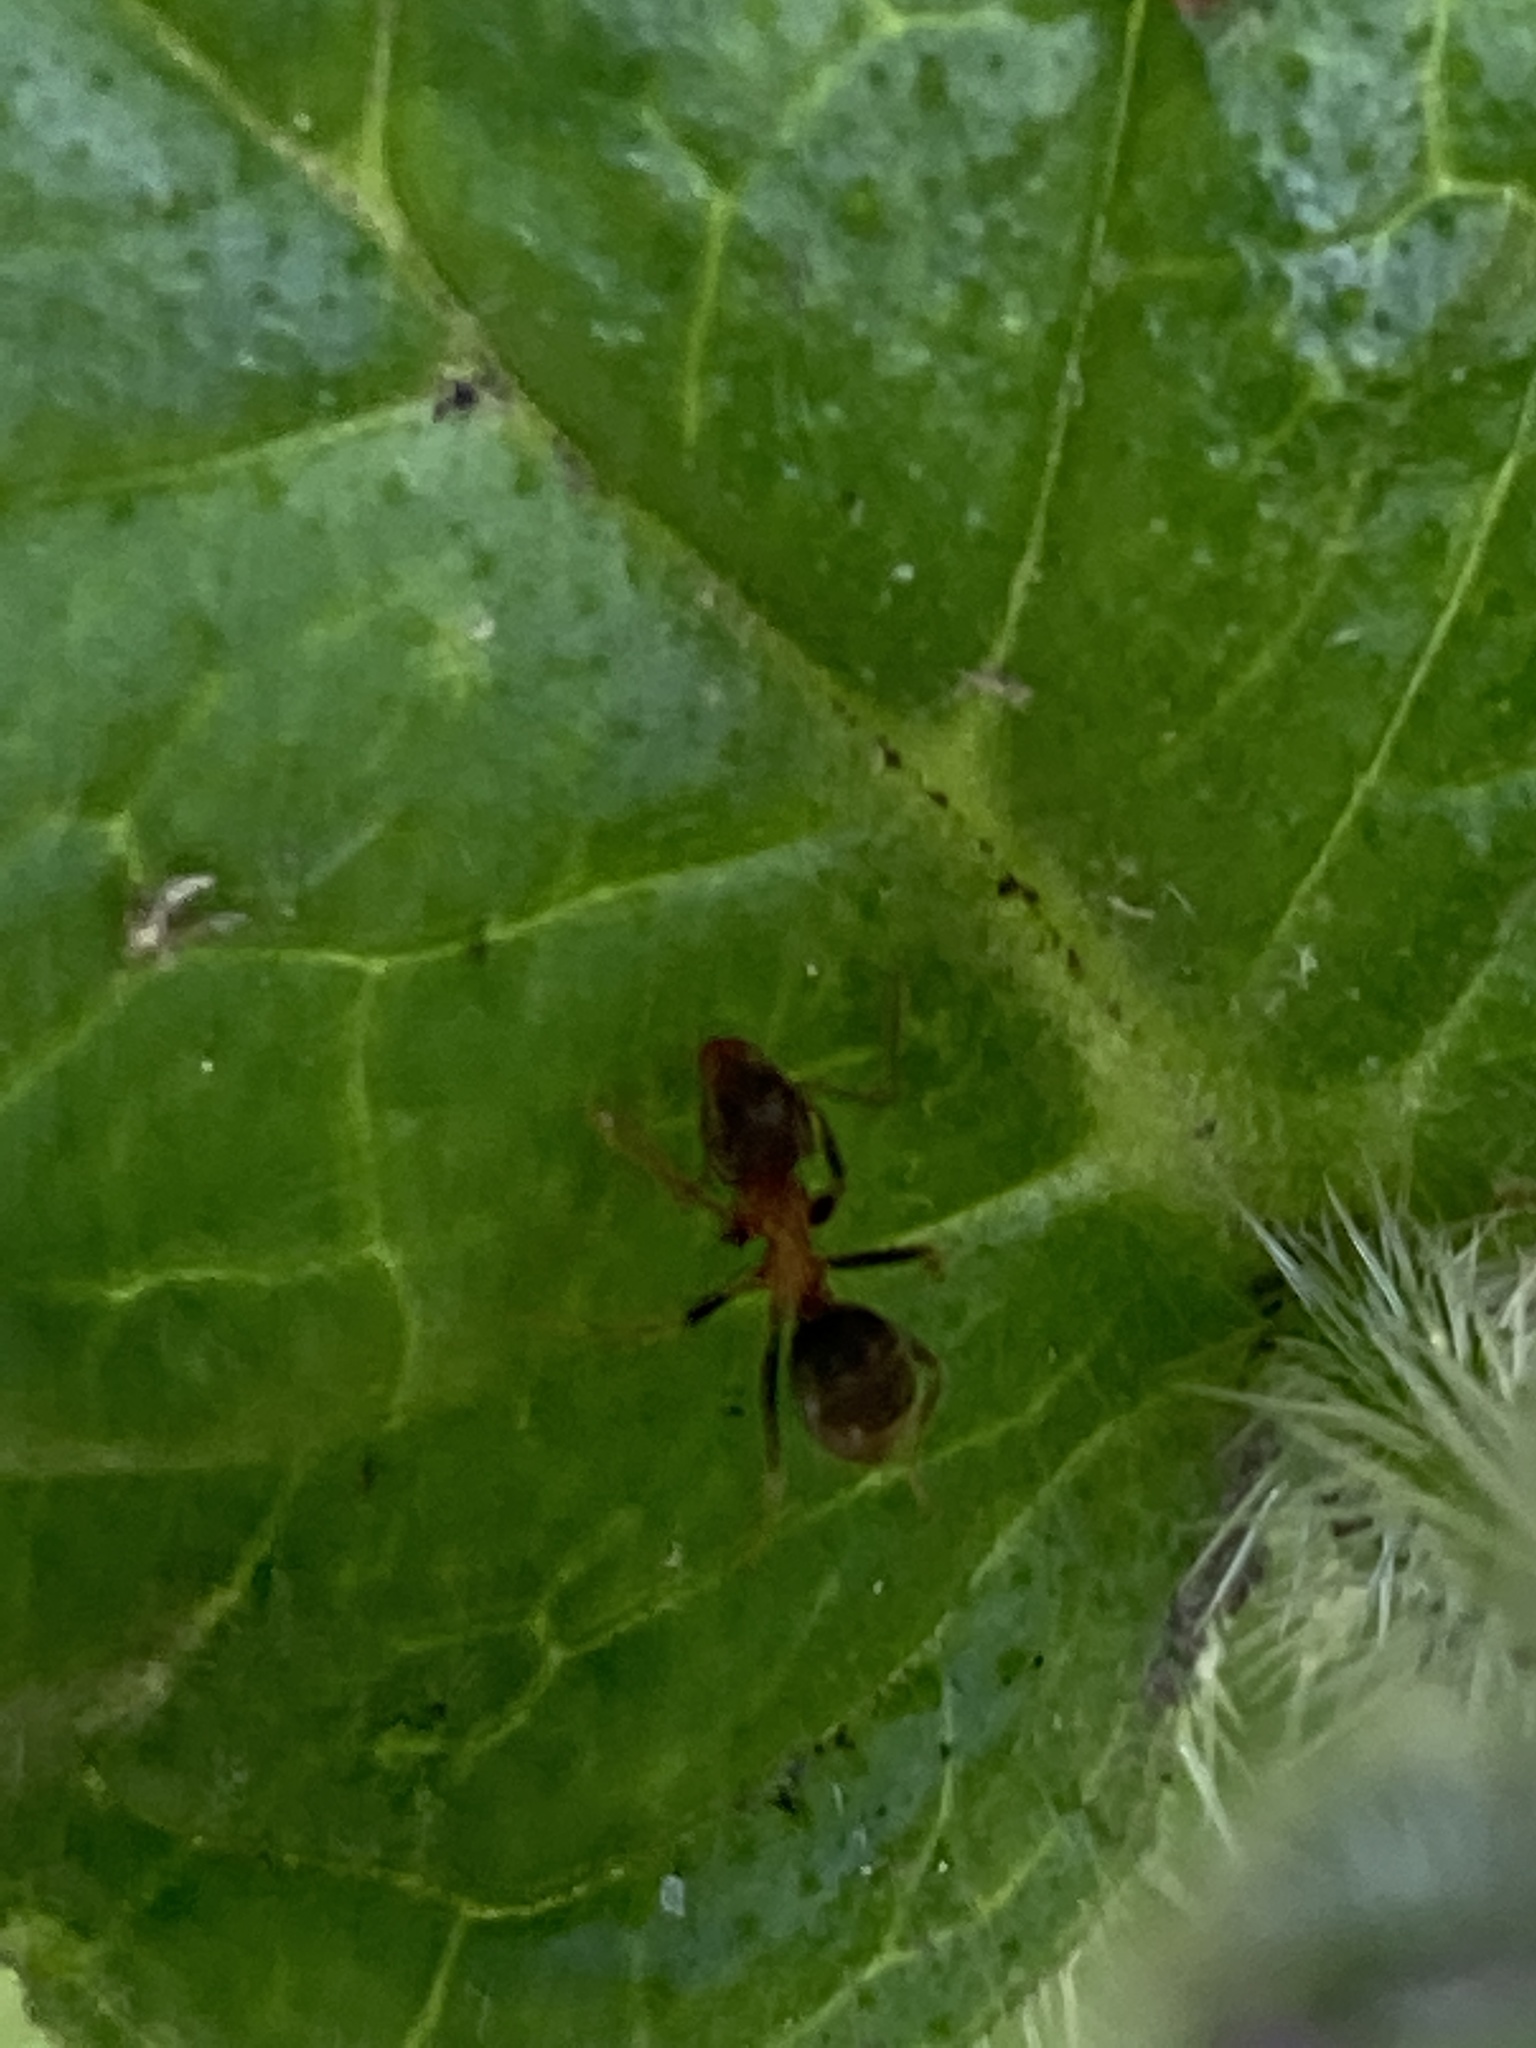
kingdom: Animalia
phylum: Arthropoda
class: Insecta
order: Hymenoptera
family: Formicidae
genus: Lasius
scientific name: Lasius emarginatus
